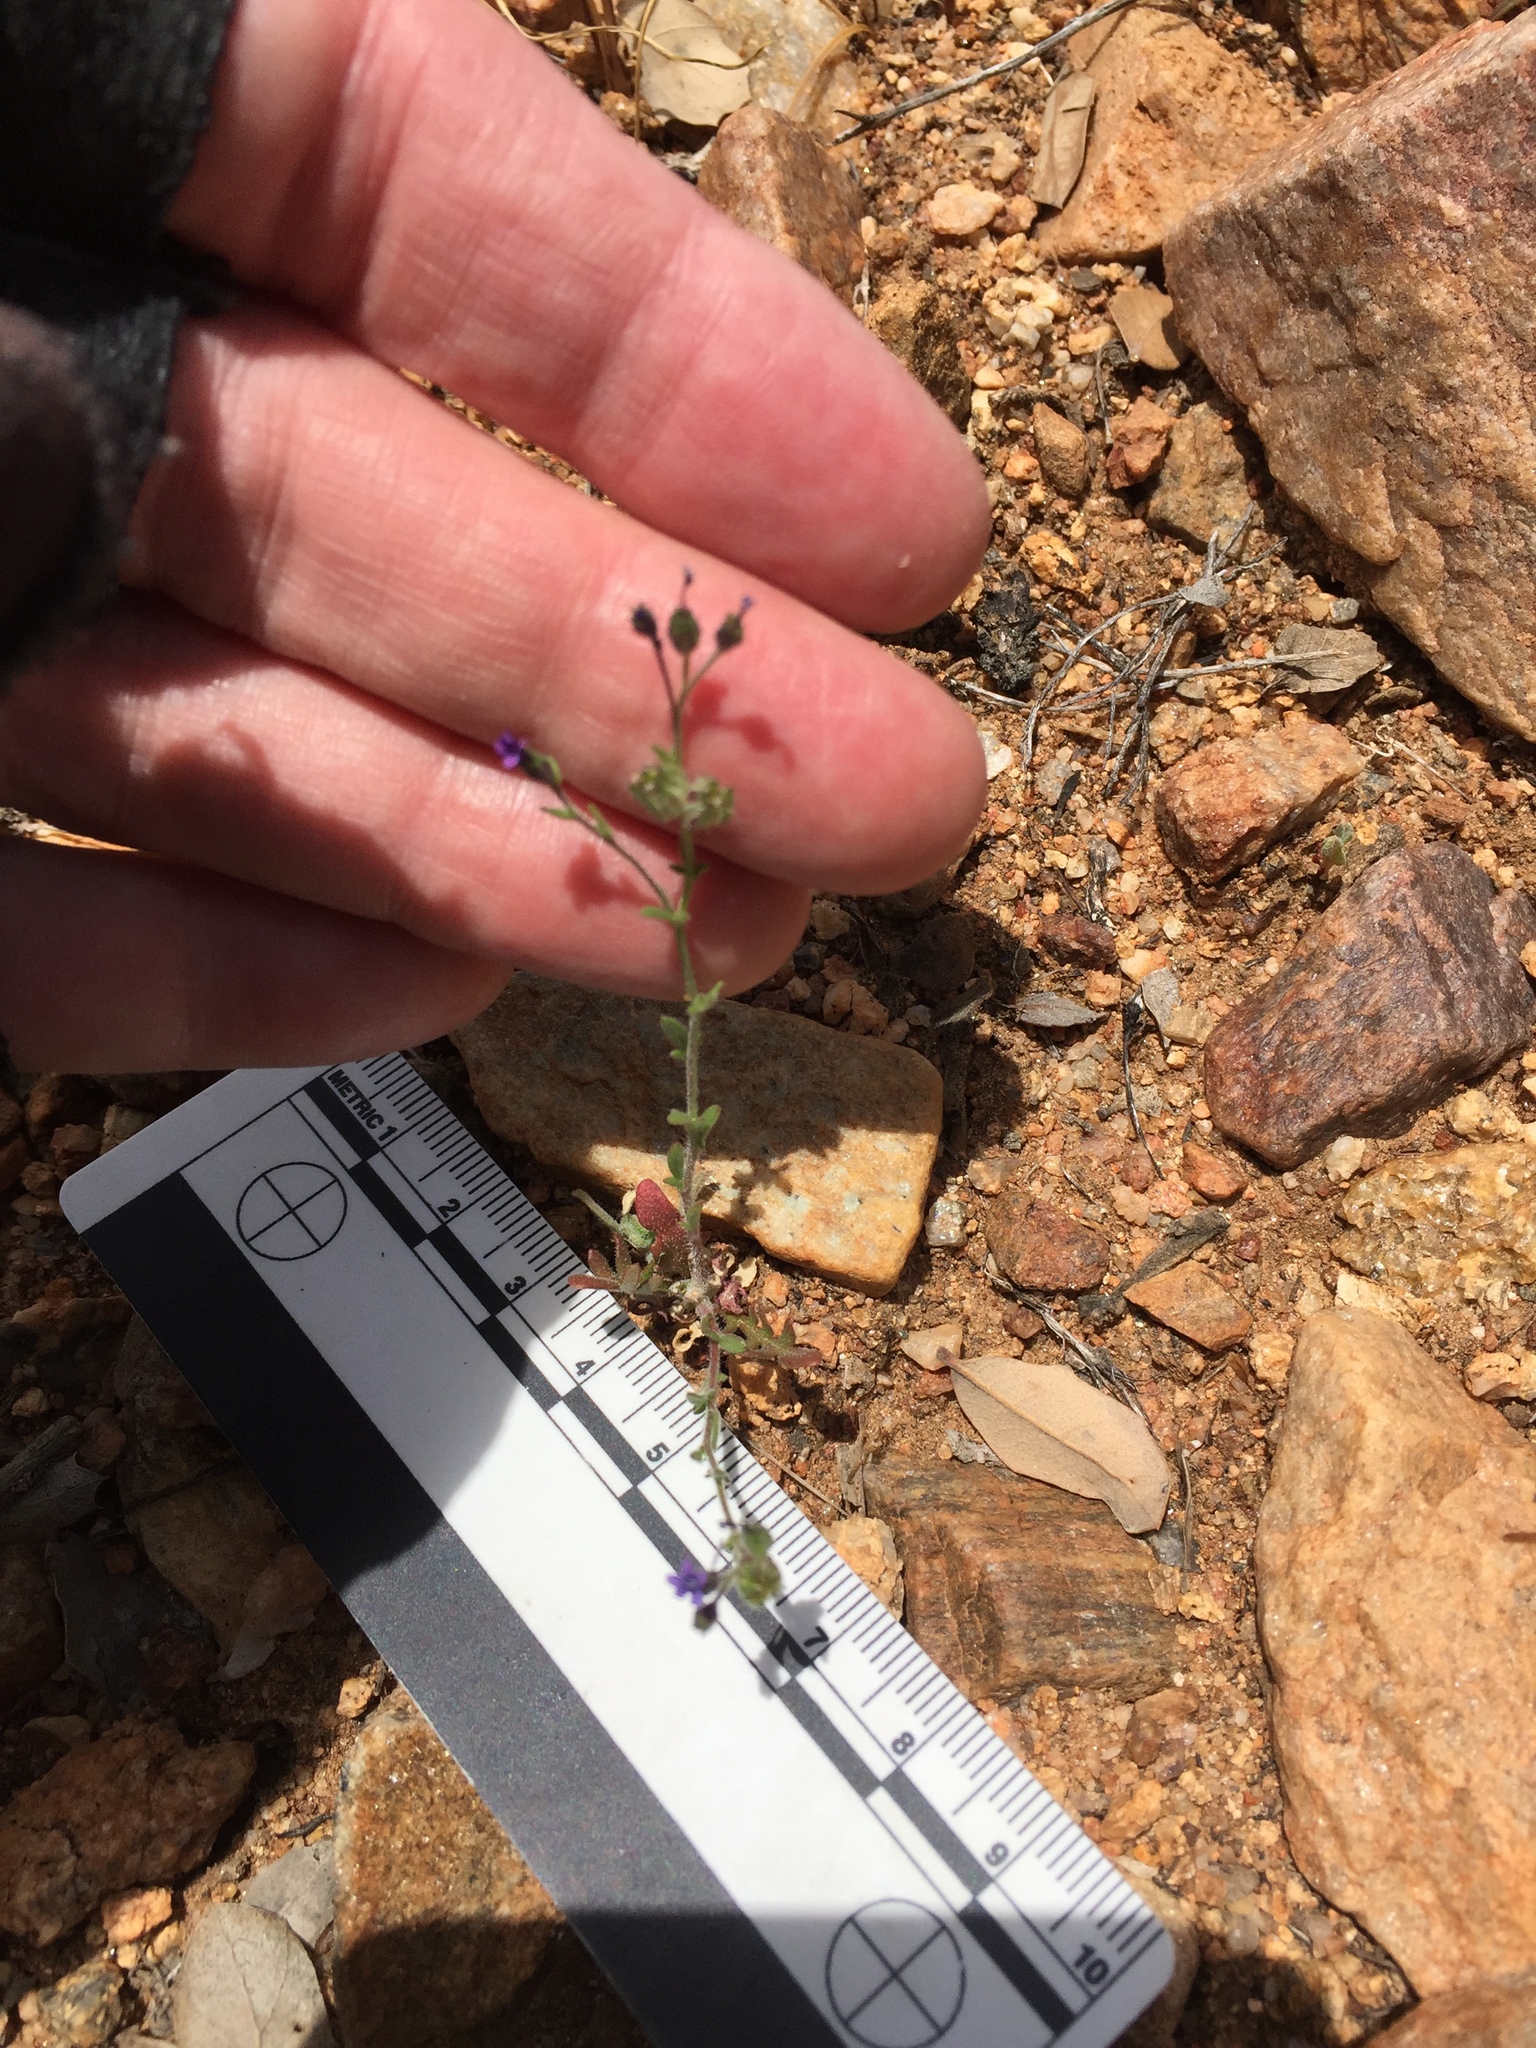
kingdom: Plantae
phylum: Tracheophyta
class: Magnoliopsida
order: Ericales
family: Polemoniaceae
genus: Allophyllum
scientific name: Allophyllum gilioides
